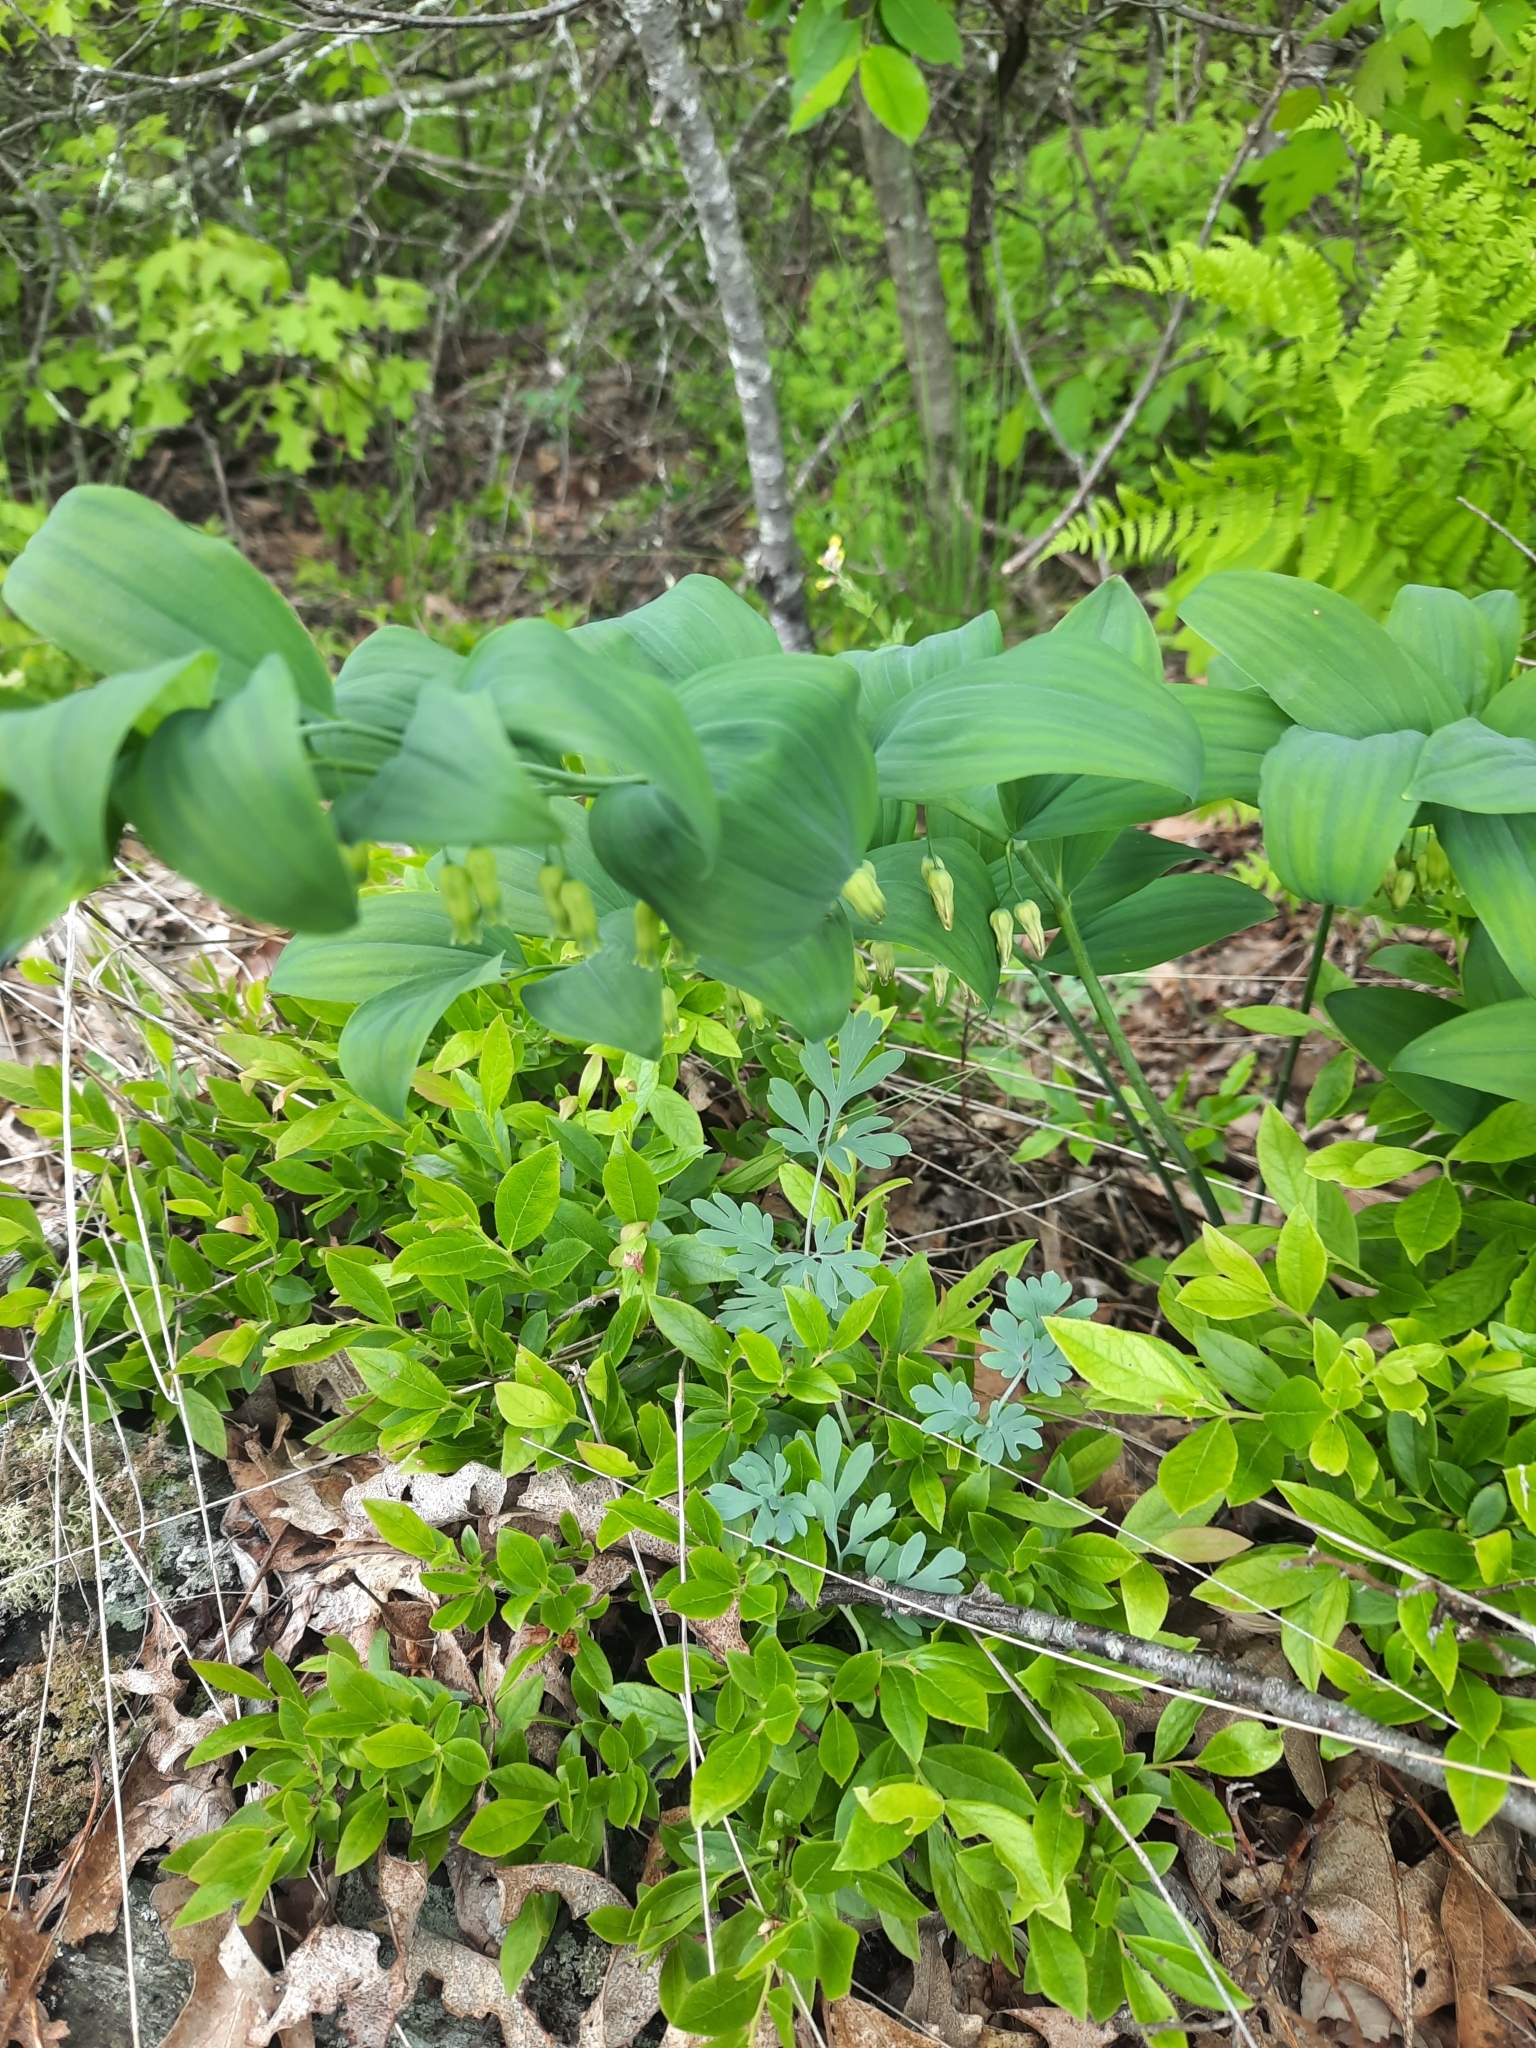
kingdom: Plantae
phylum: Tracheophyta
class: Liliopsida
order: Asparagales
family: Asparagaceae
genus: Polygonatum
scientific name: Polygonatum pubescens
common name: Downy solomon's seal
